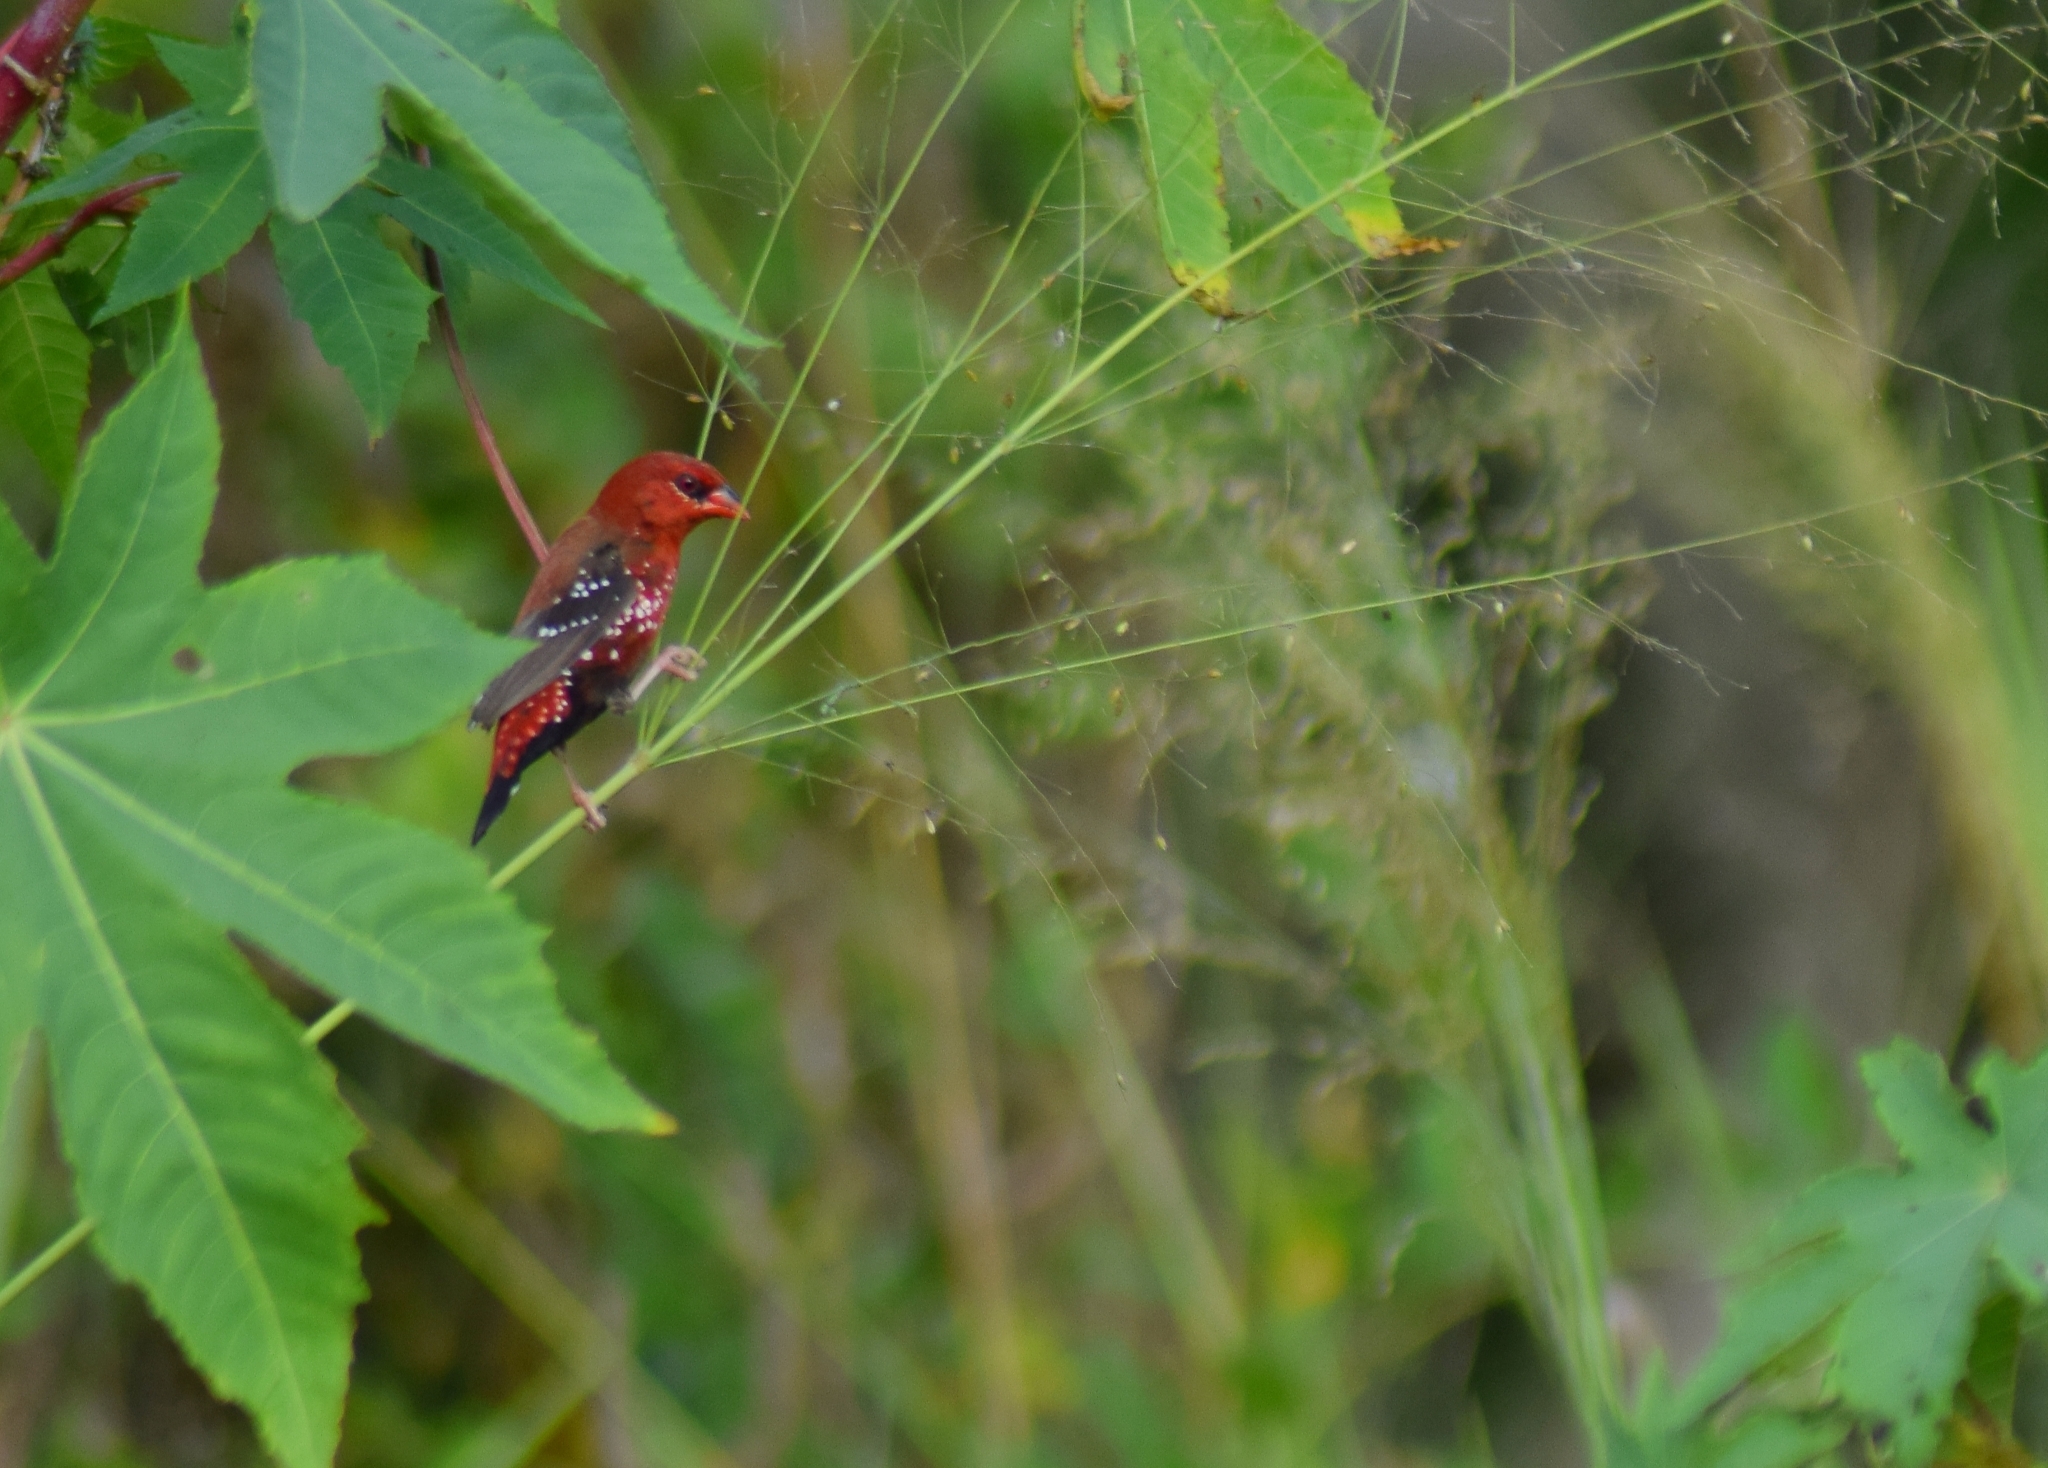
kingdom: Animalia
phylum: Chordata
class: Aves
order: Passeriformes
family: Estrildidae
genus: Amandava
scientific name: Amandava amandava
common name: Red avadavat
